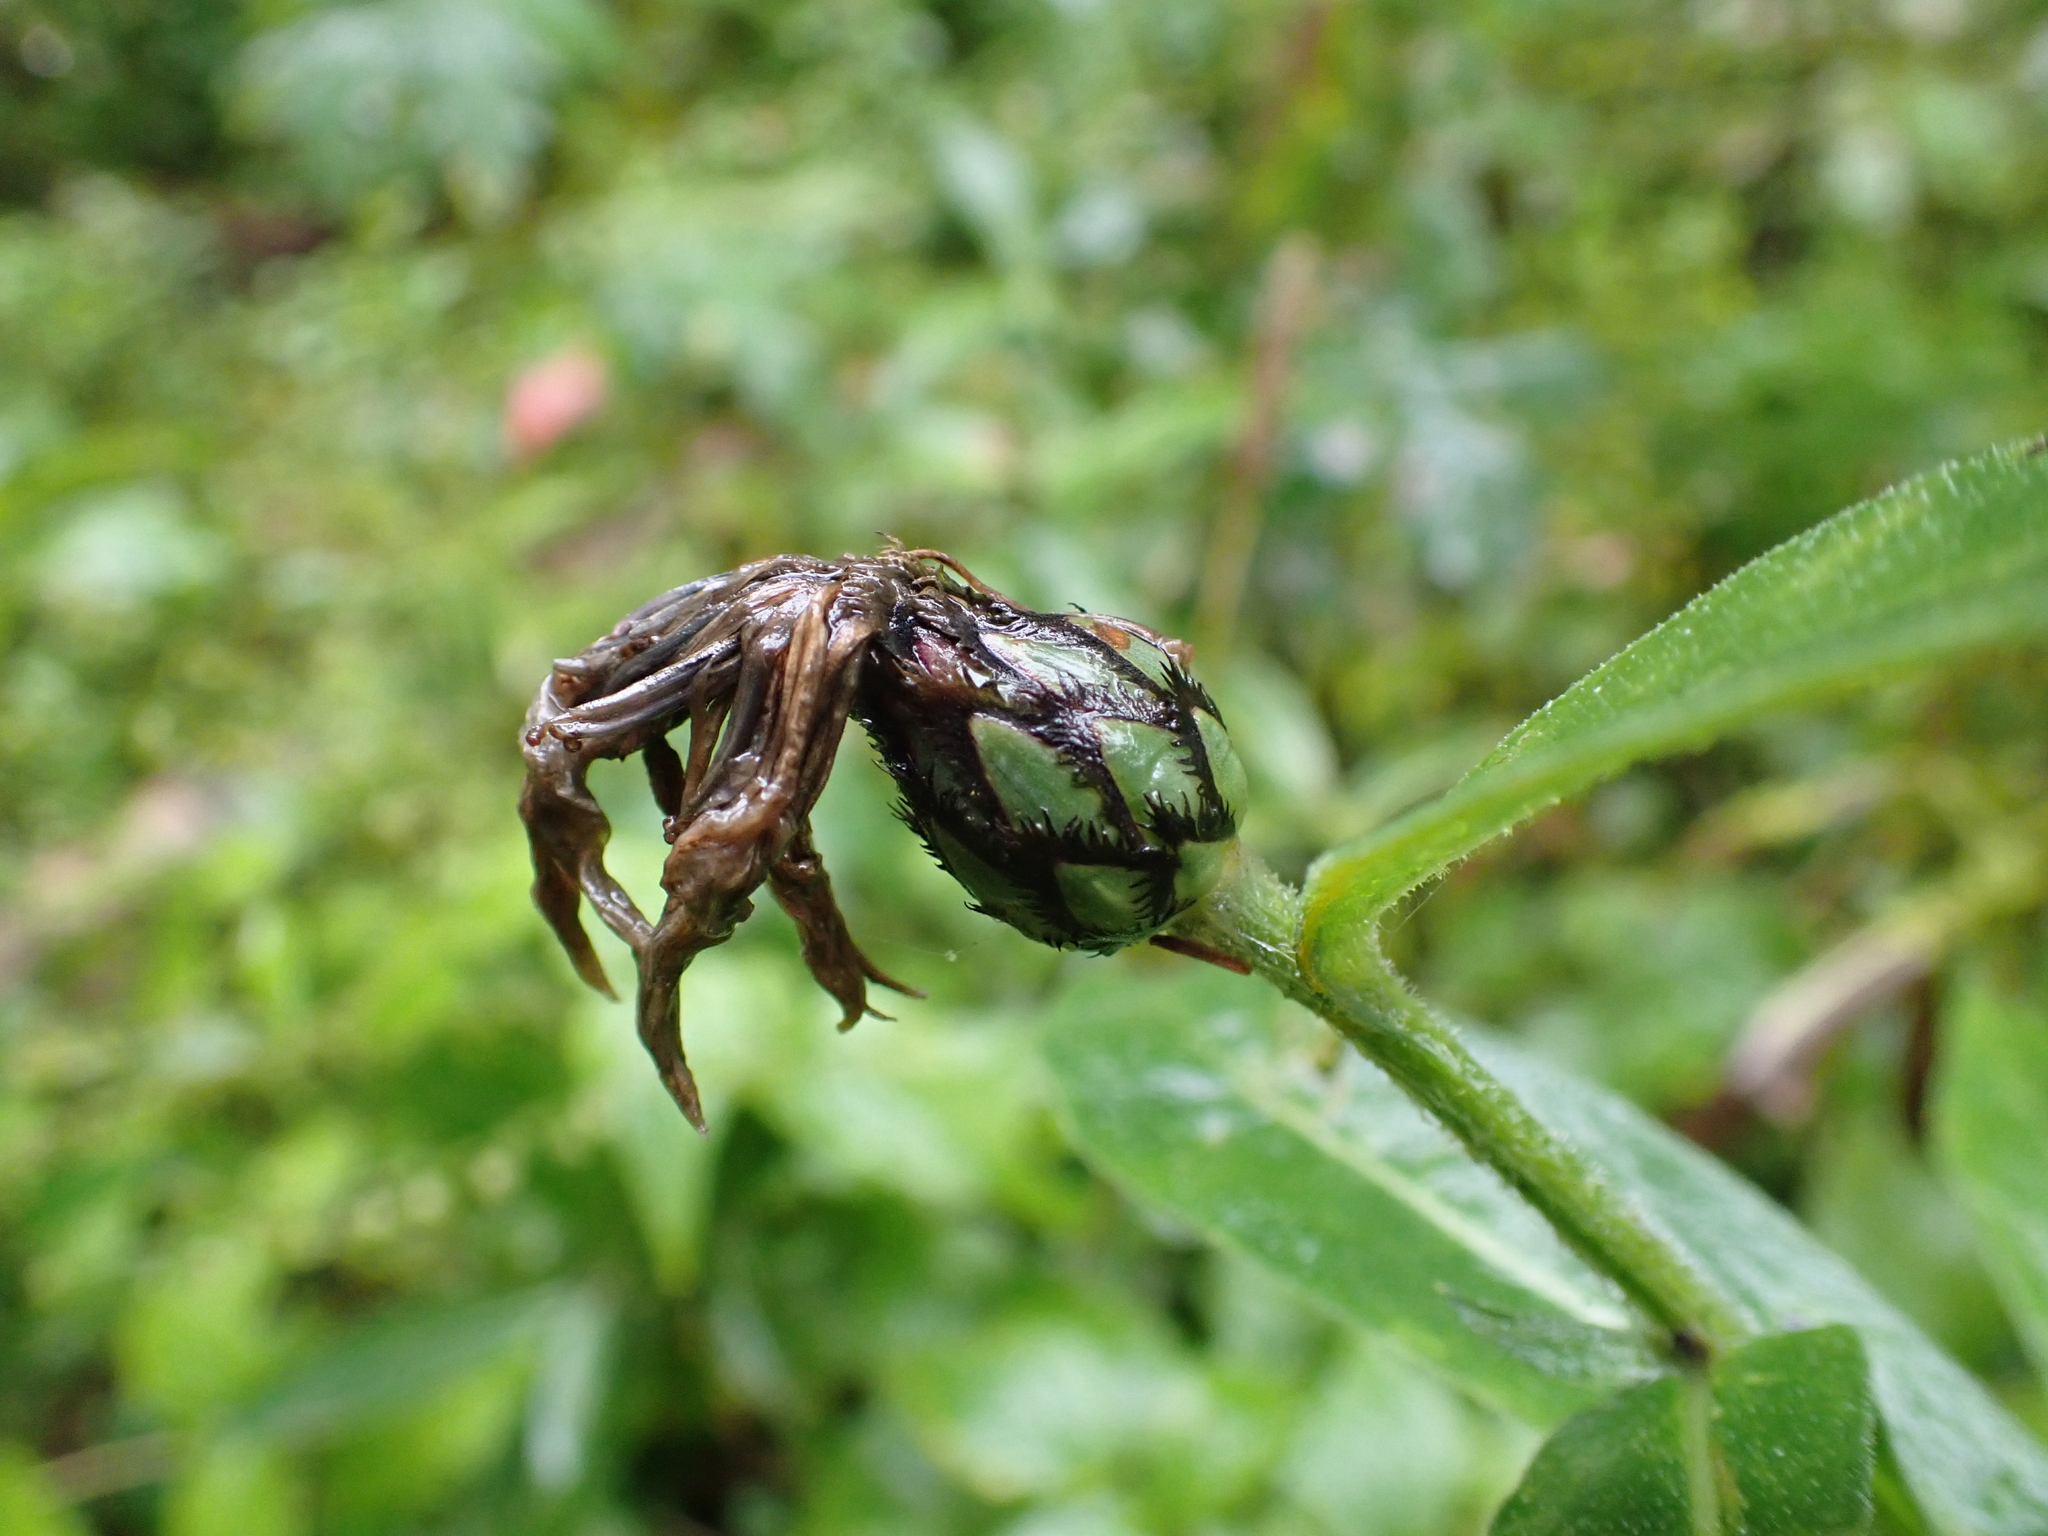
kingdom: Plantae
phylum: Tracheophyta
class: Magnoliopsida
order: Asterales
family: Asteraceae
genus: Centaurea
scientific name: Centaurea montana
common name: Perennial cornflower
